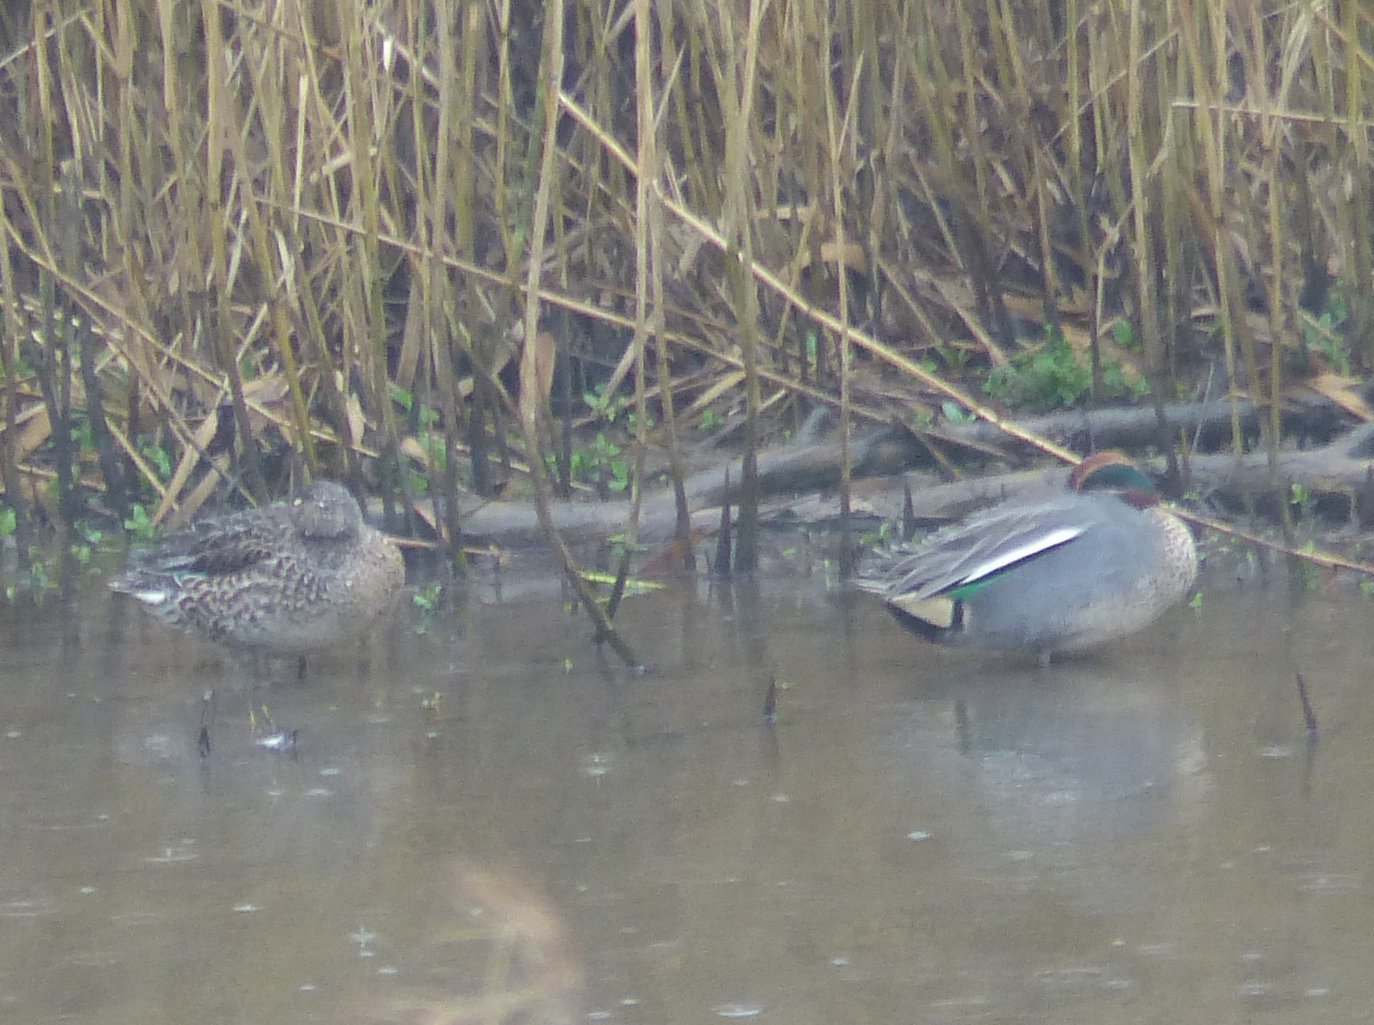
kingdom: Animalia
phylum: Chordata
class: Aves
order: Anseriformes
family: Anatidae
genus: Anas
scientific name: Anas crecca
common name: Eurasian teal
